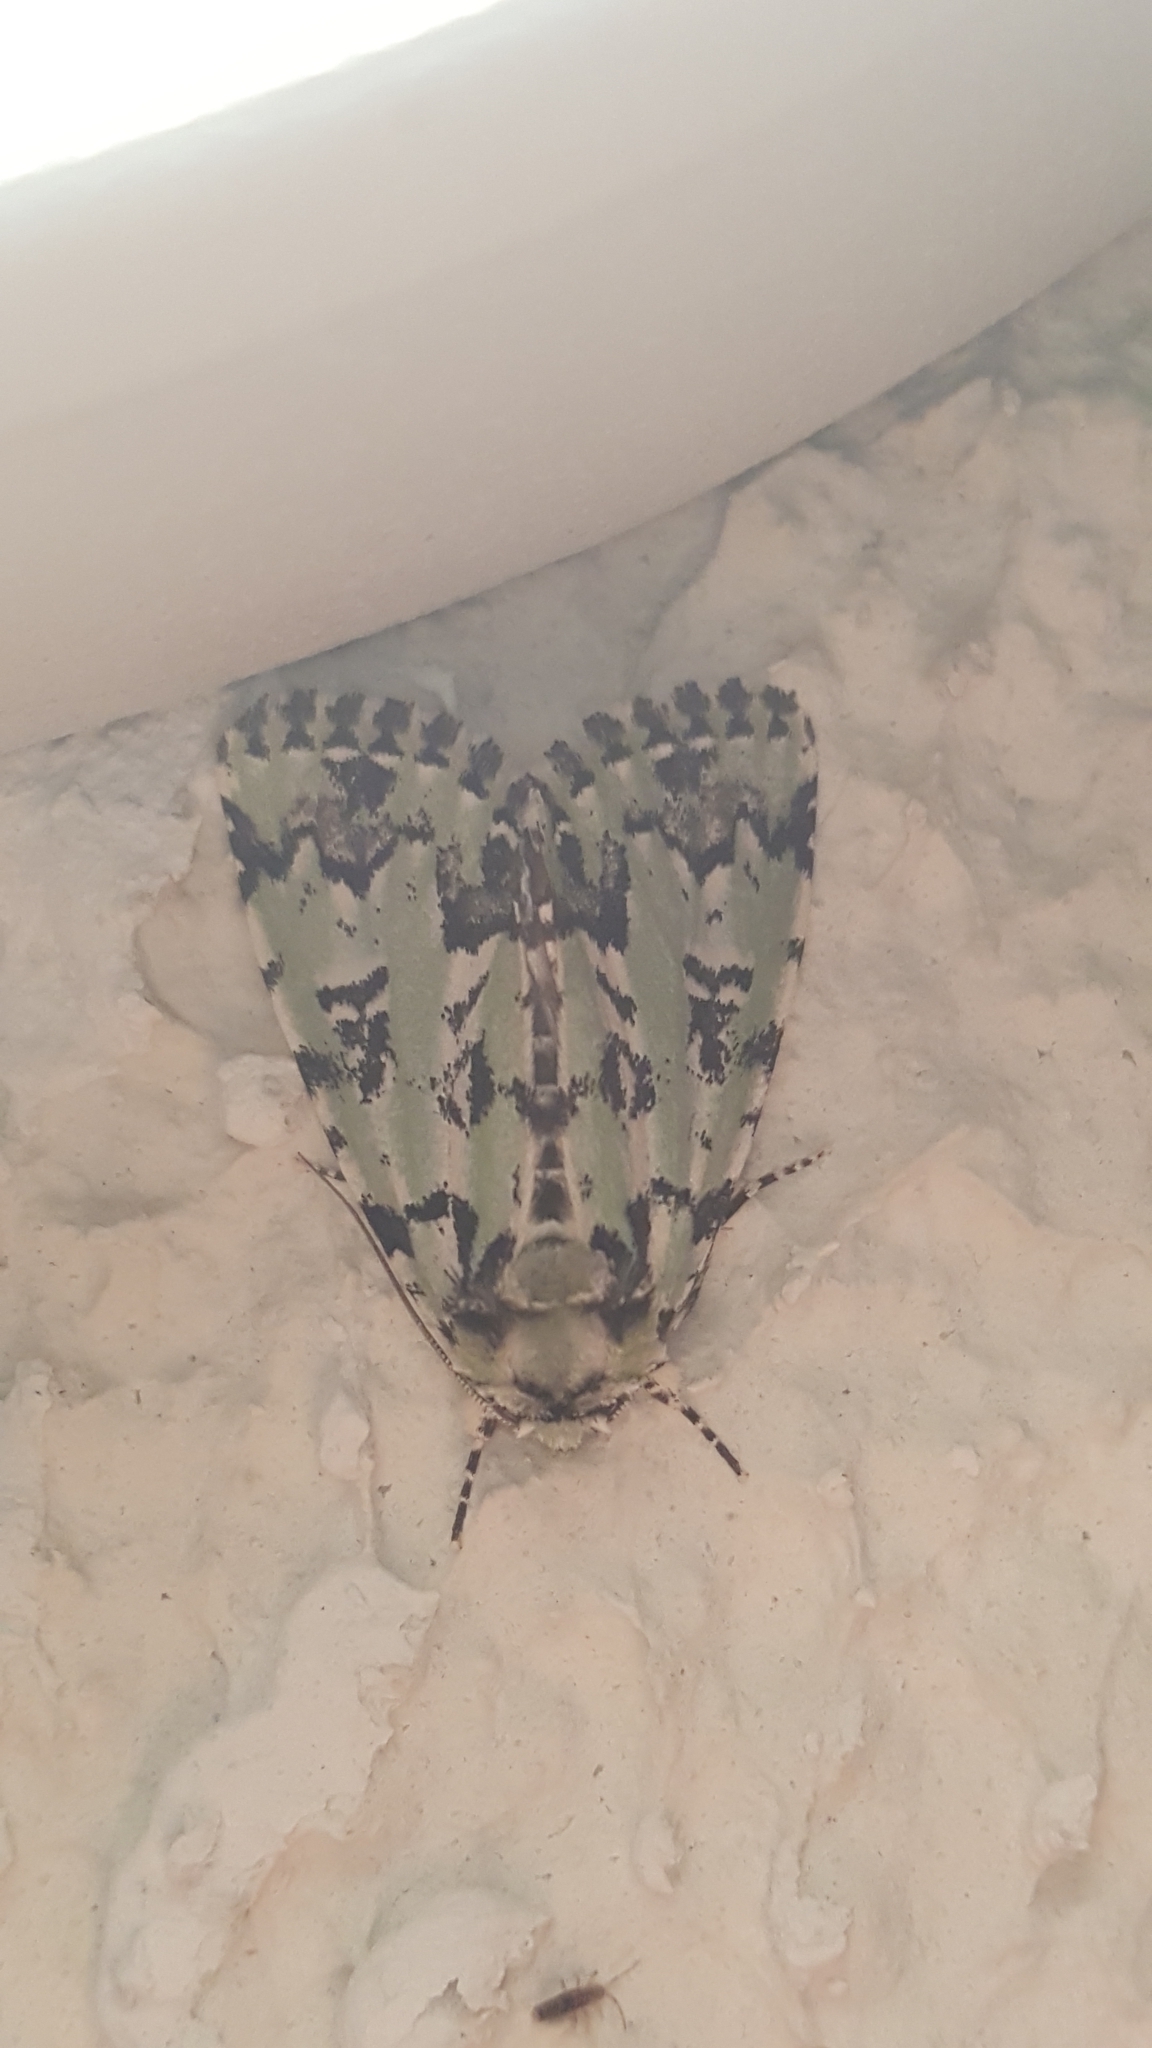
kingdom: Animalia
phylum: Arthropoda
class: Insecta
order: Lepidoptera
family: Noctuidae
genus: Moma
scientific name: Moma alpium
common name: Scarce merveille du jour
